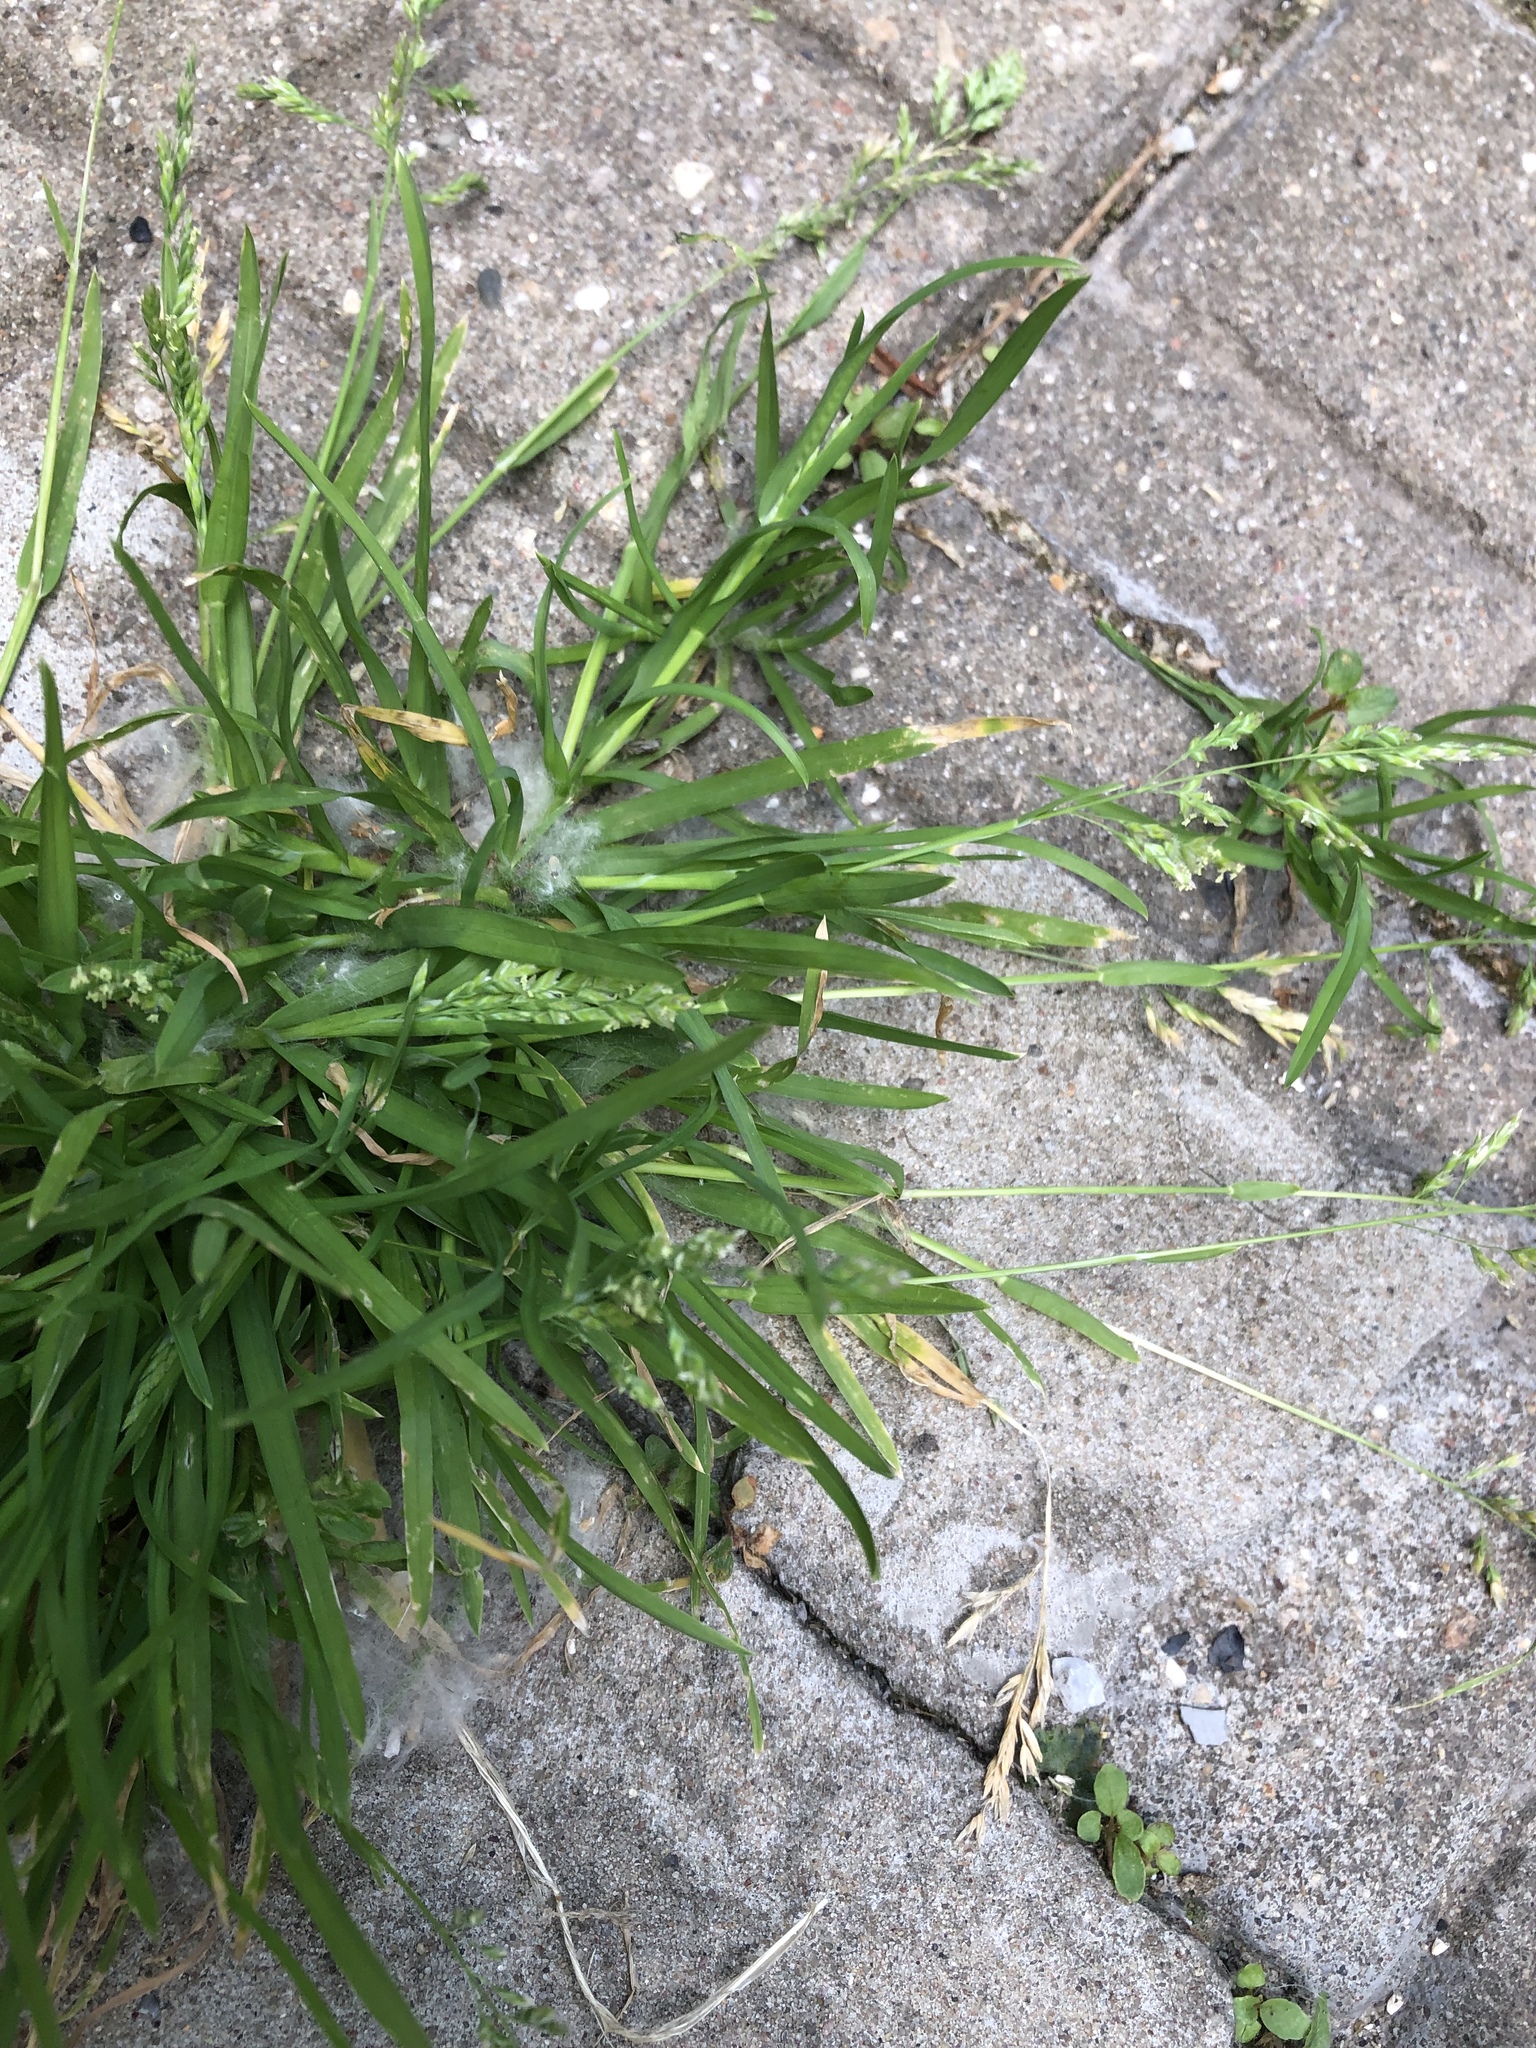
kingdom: Plantae
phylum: Tracheophyta
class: Liliopsida
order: Poales
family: Poaceae
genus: Poa
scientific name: Poa annua
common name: Annual bluegrass
